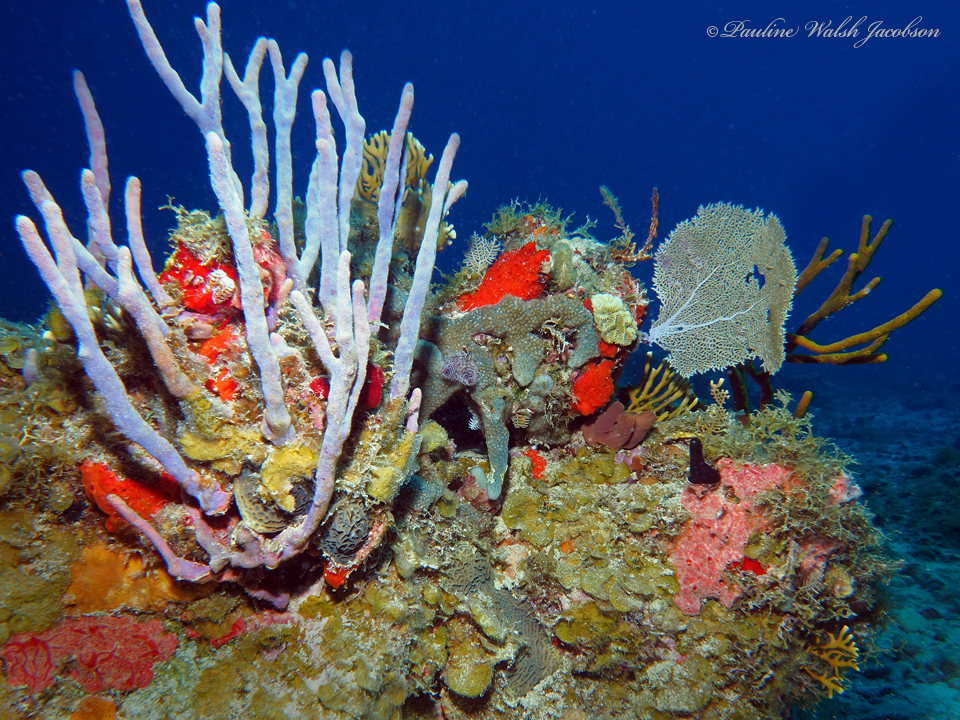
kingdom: Animalia
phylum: Porifera
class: Demospongiae
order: Verongiida
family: Aplysinidae
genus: Aplysina
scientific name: Aplysina cauliformis
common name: Branching candle sponge
